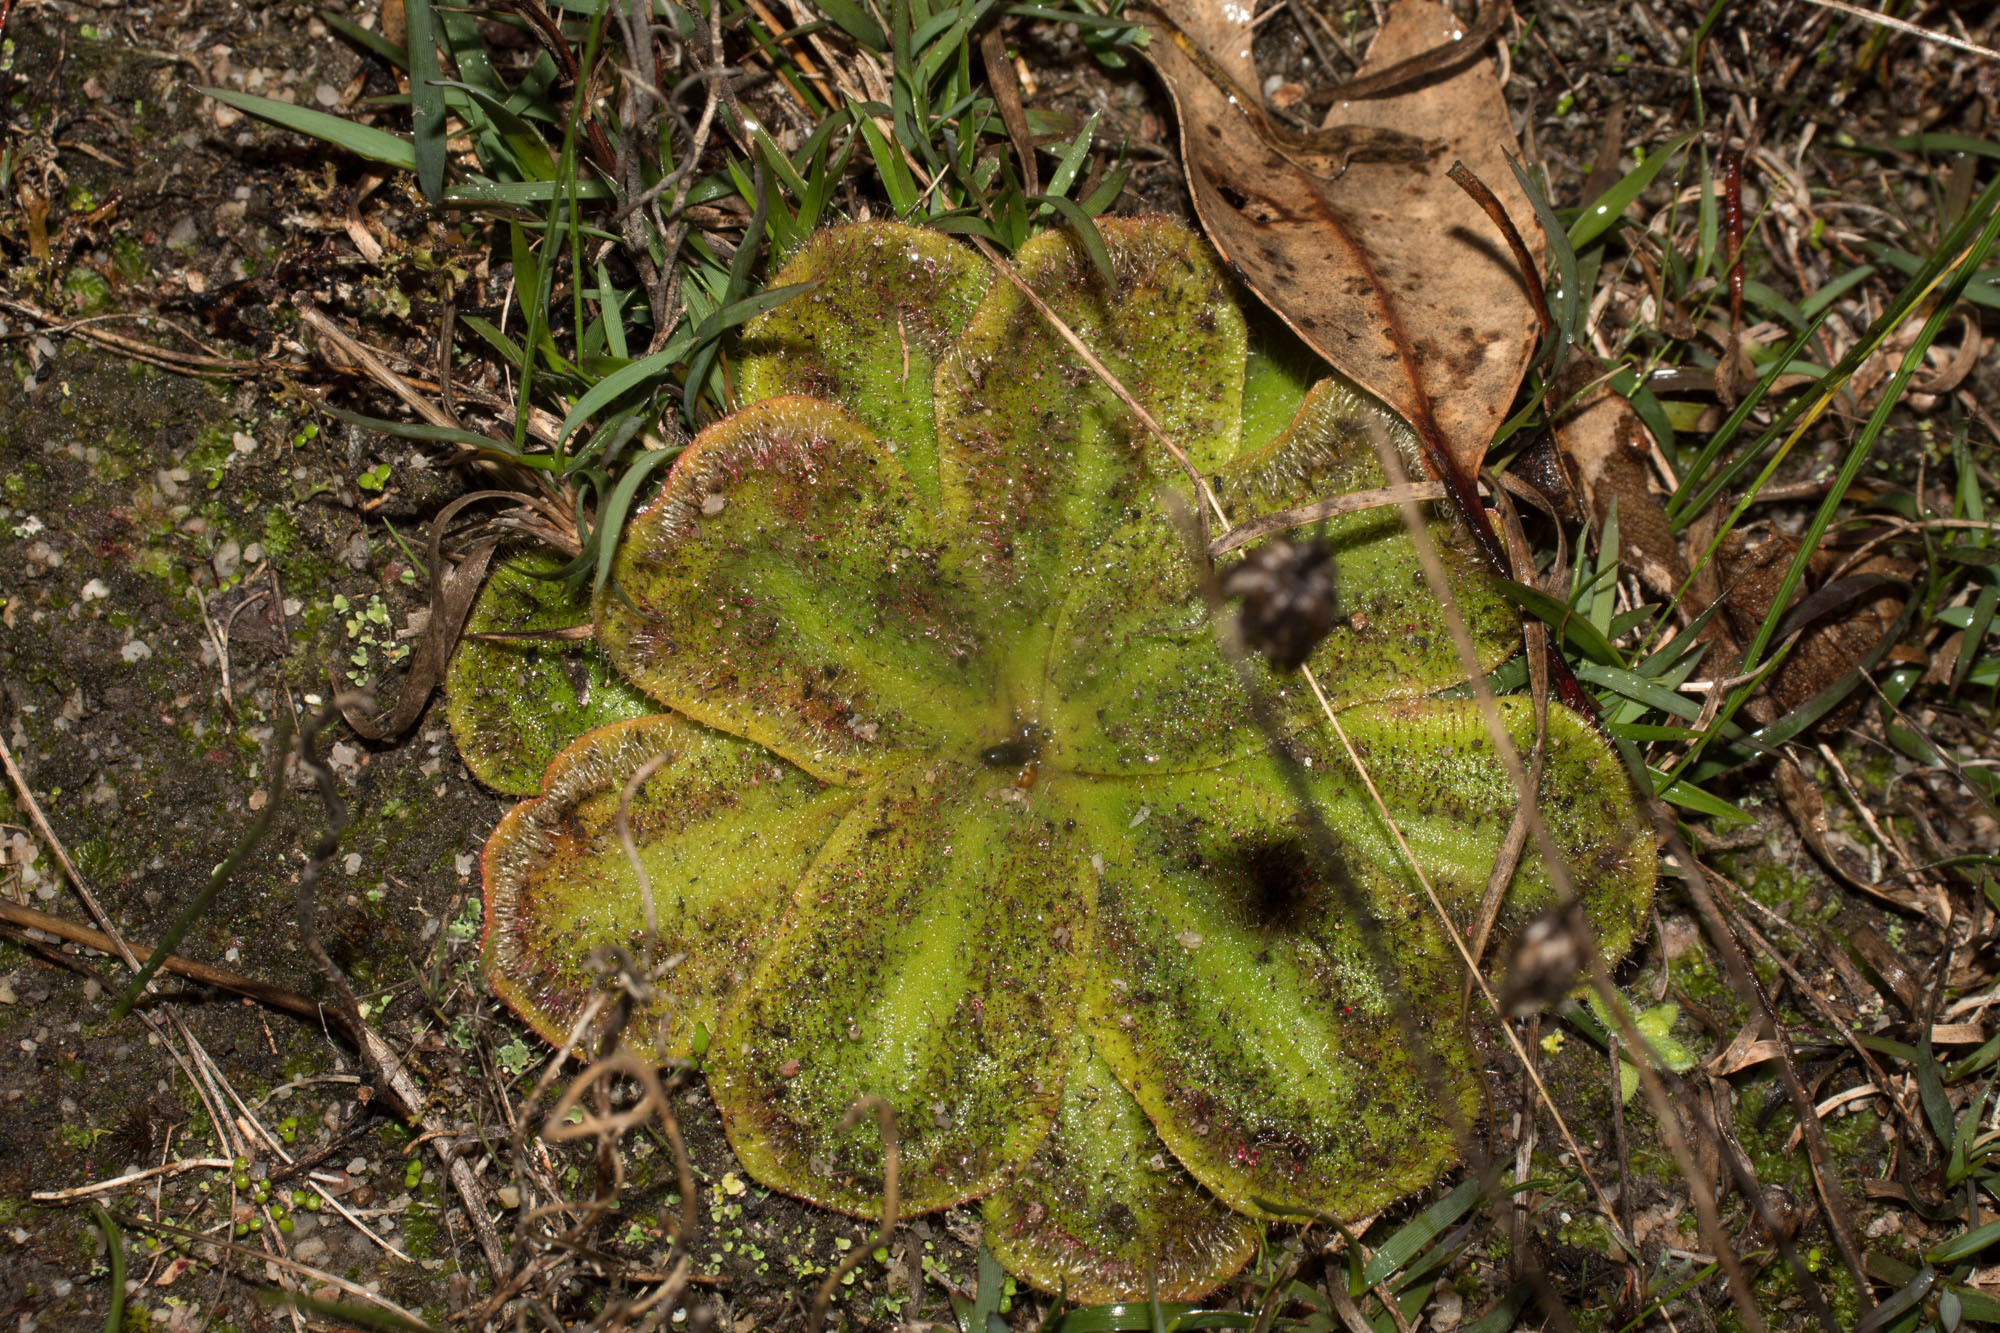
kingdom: Plantae
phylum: Tracheophyta
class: Magnoliopsida
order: Caryophyllales
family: Droseraceae
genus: Drosera
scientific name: Drosera erythrorhiza
